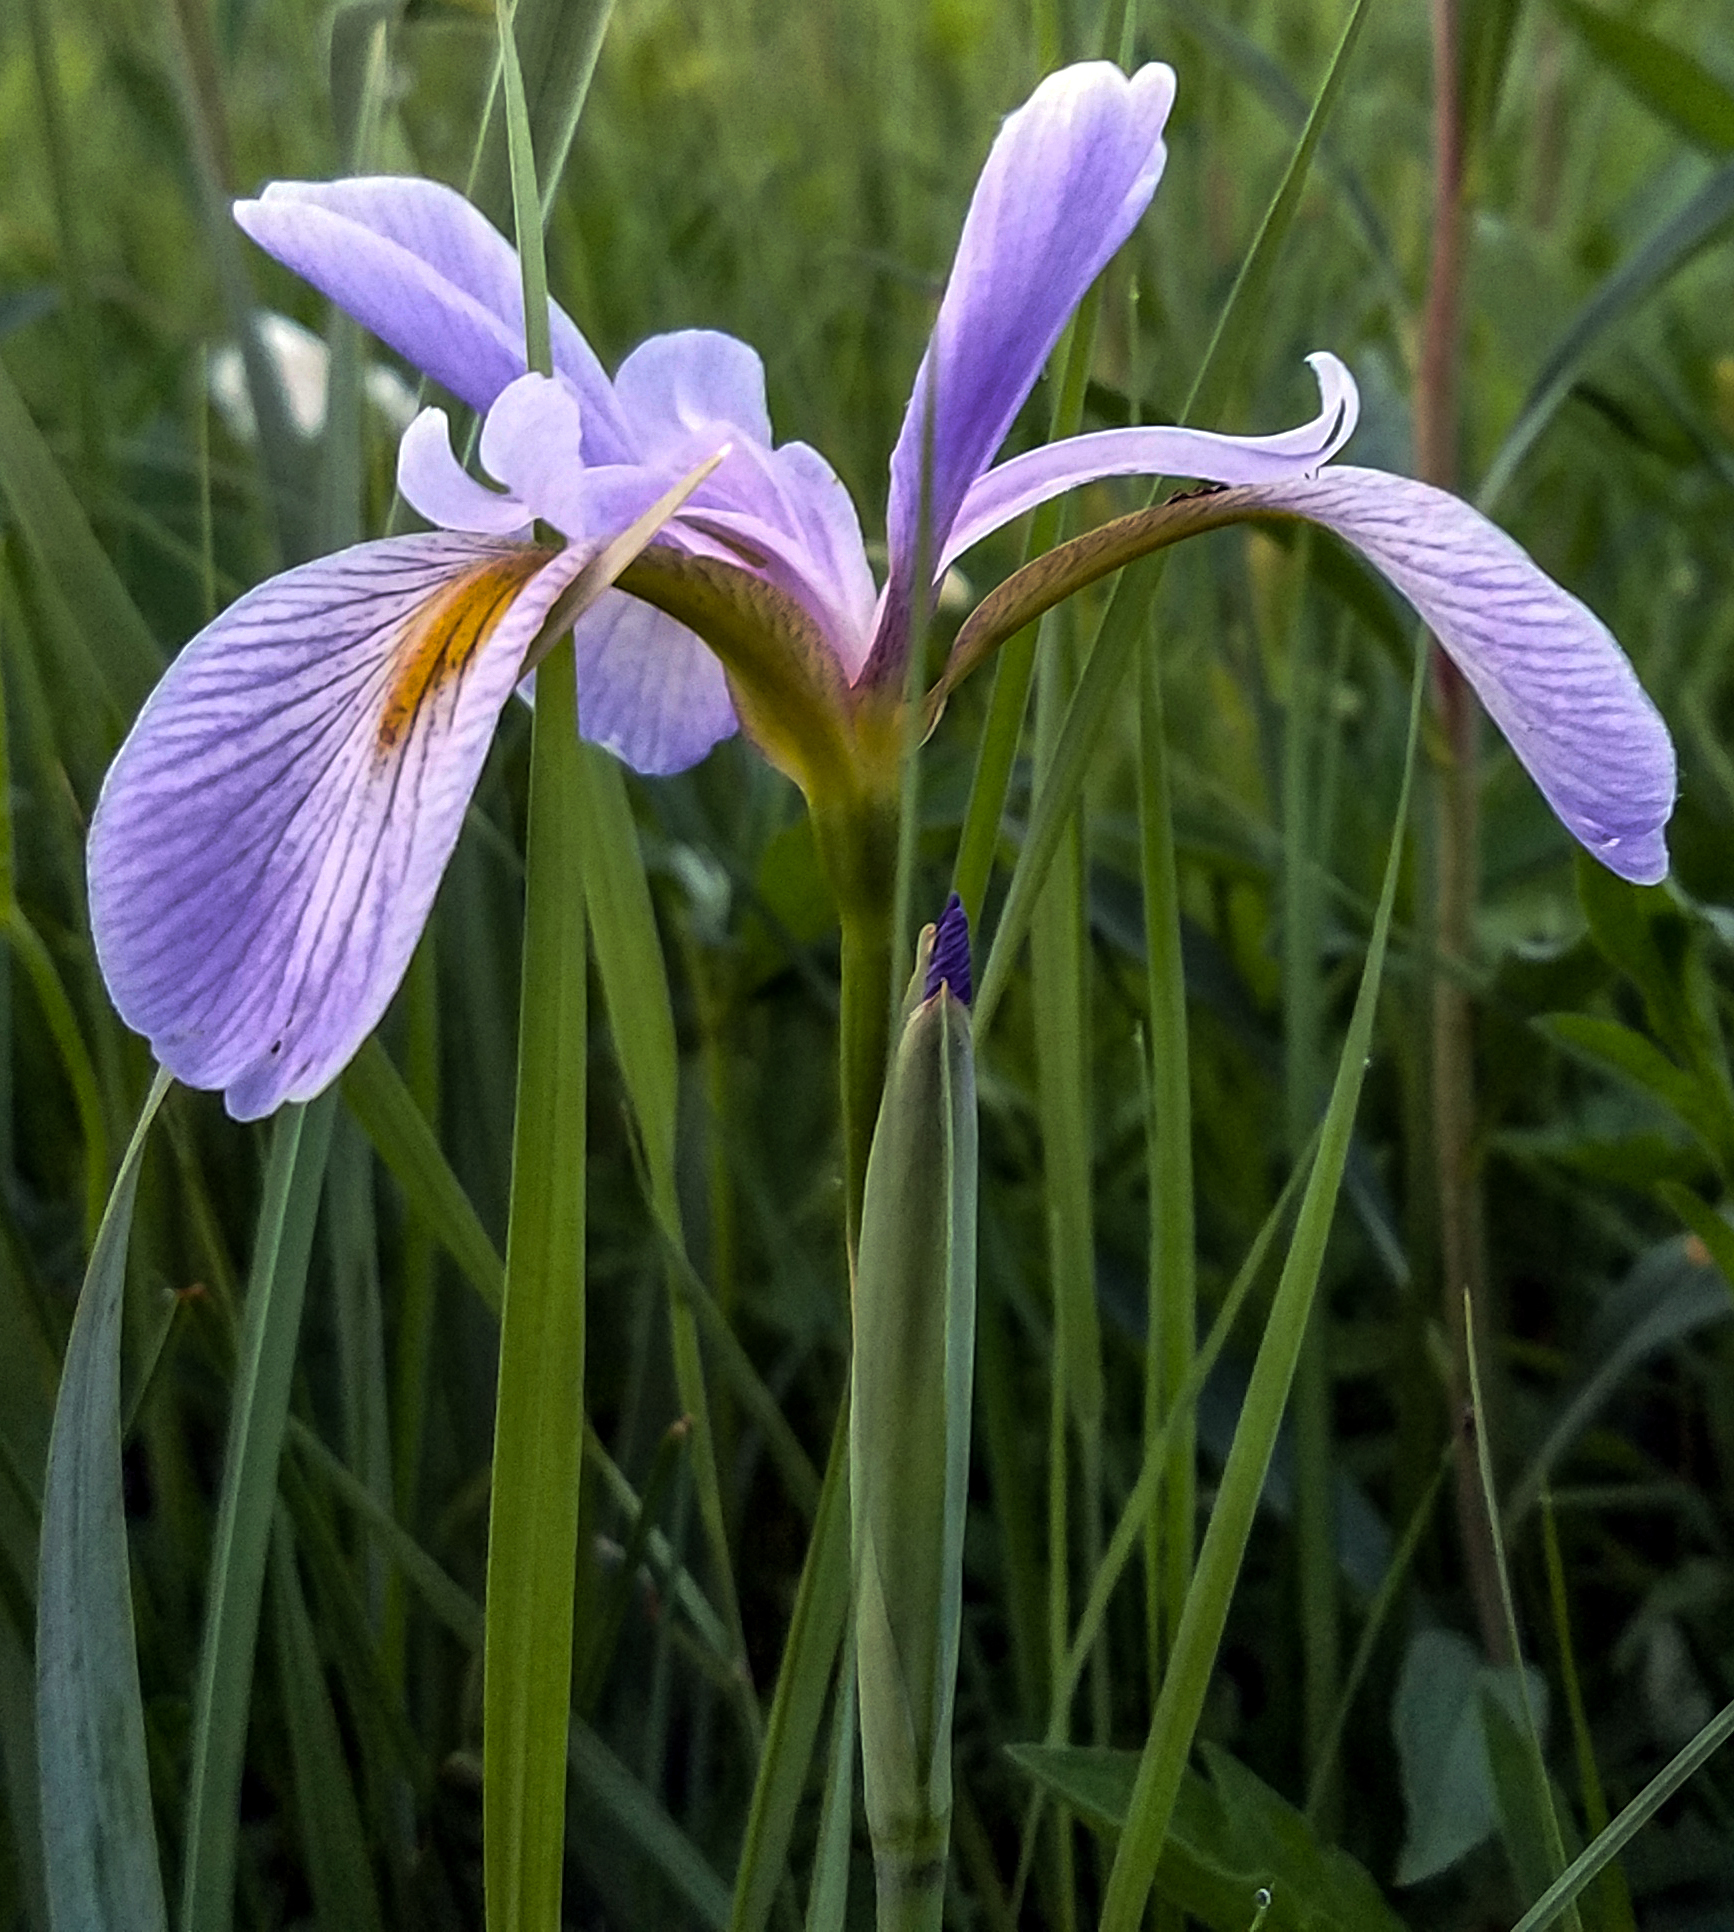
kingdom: Plantae
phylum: Tracheophyta
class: Liliopsida
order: Asparagales
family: Iridaceae
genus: Iris
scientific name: Iris virginica
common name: Southern blue flag
